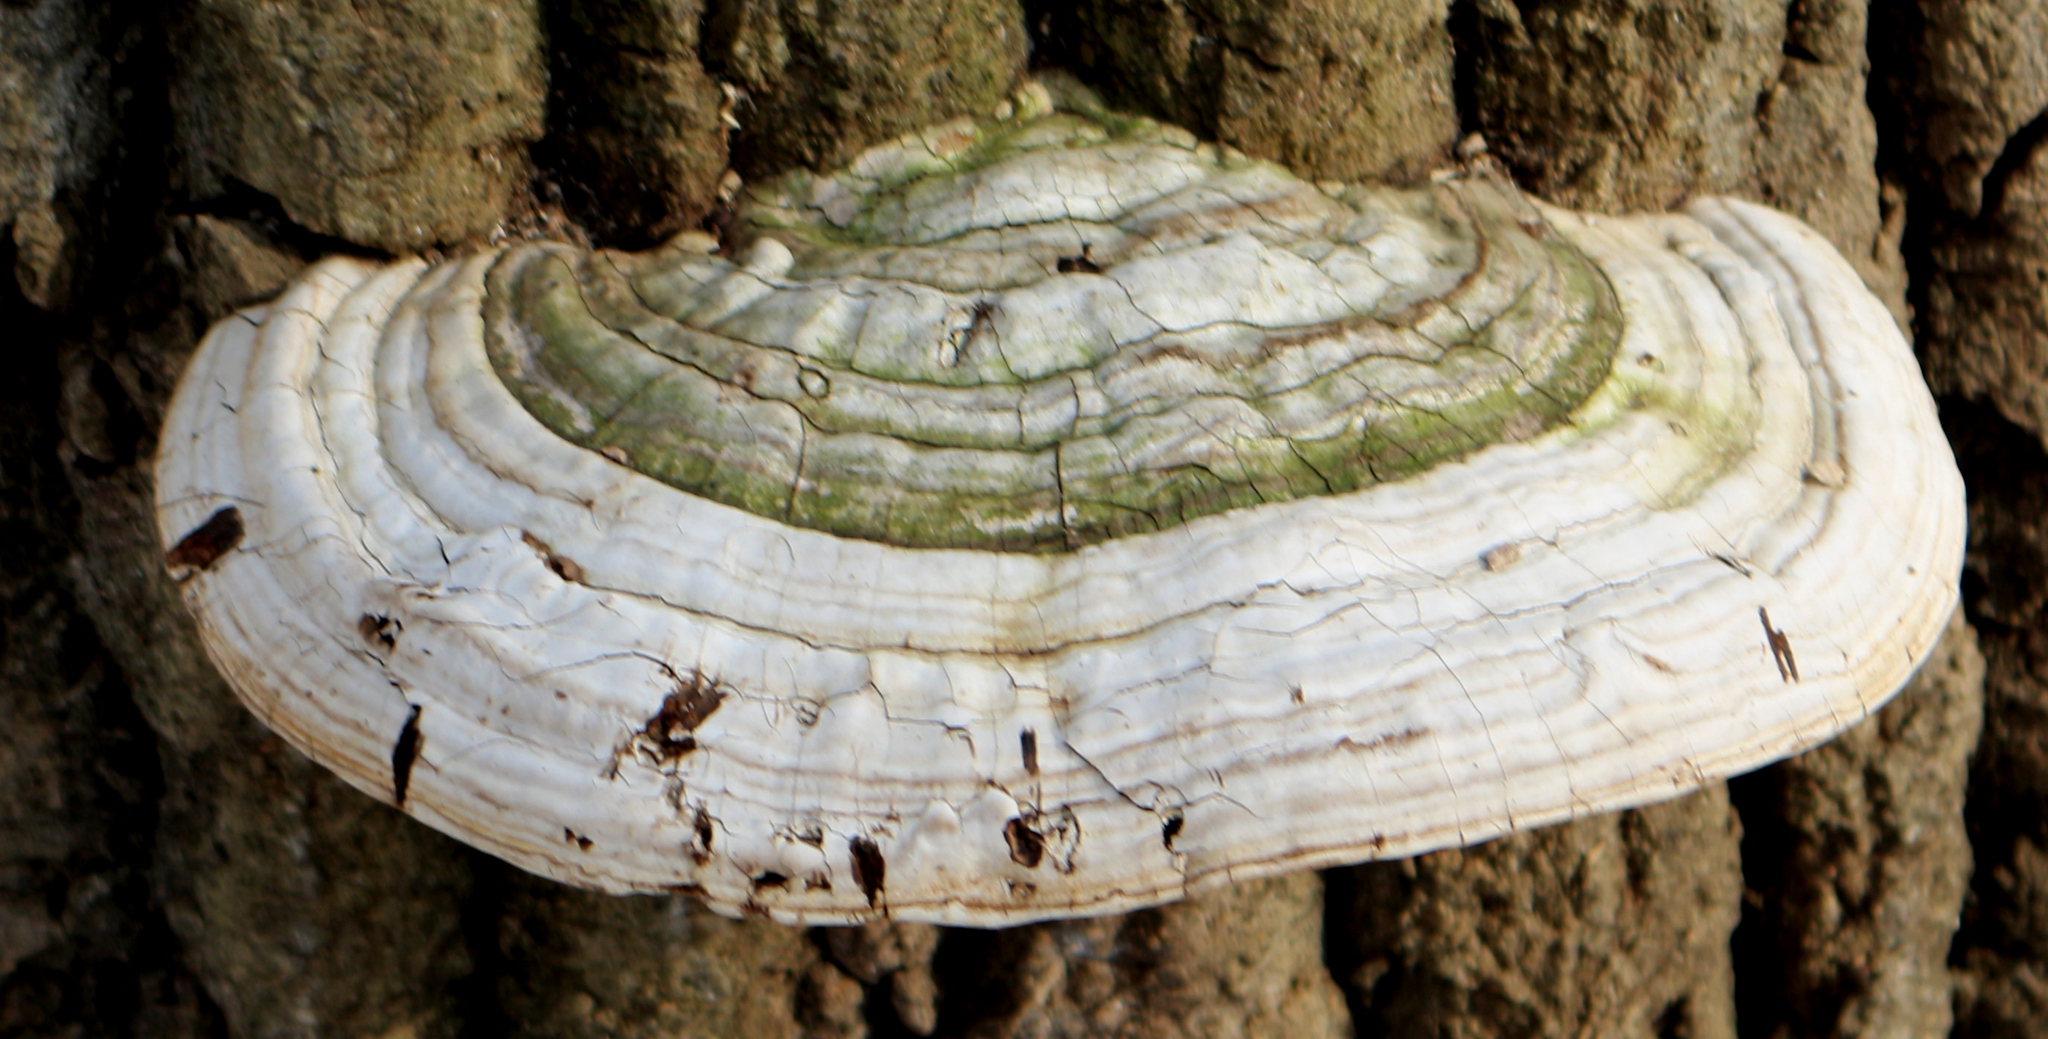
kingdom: Fungi
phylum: Basidiomycota
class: Agaricomycetes
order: Polyporales
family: Polyporaceae
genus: Ganoderma
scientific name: Ganoderma applanatum
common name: Artist's bracket
